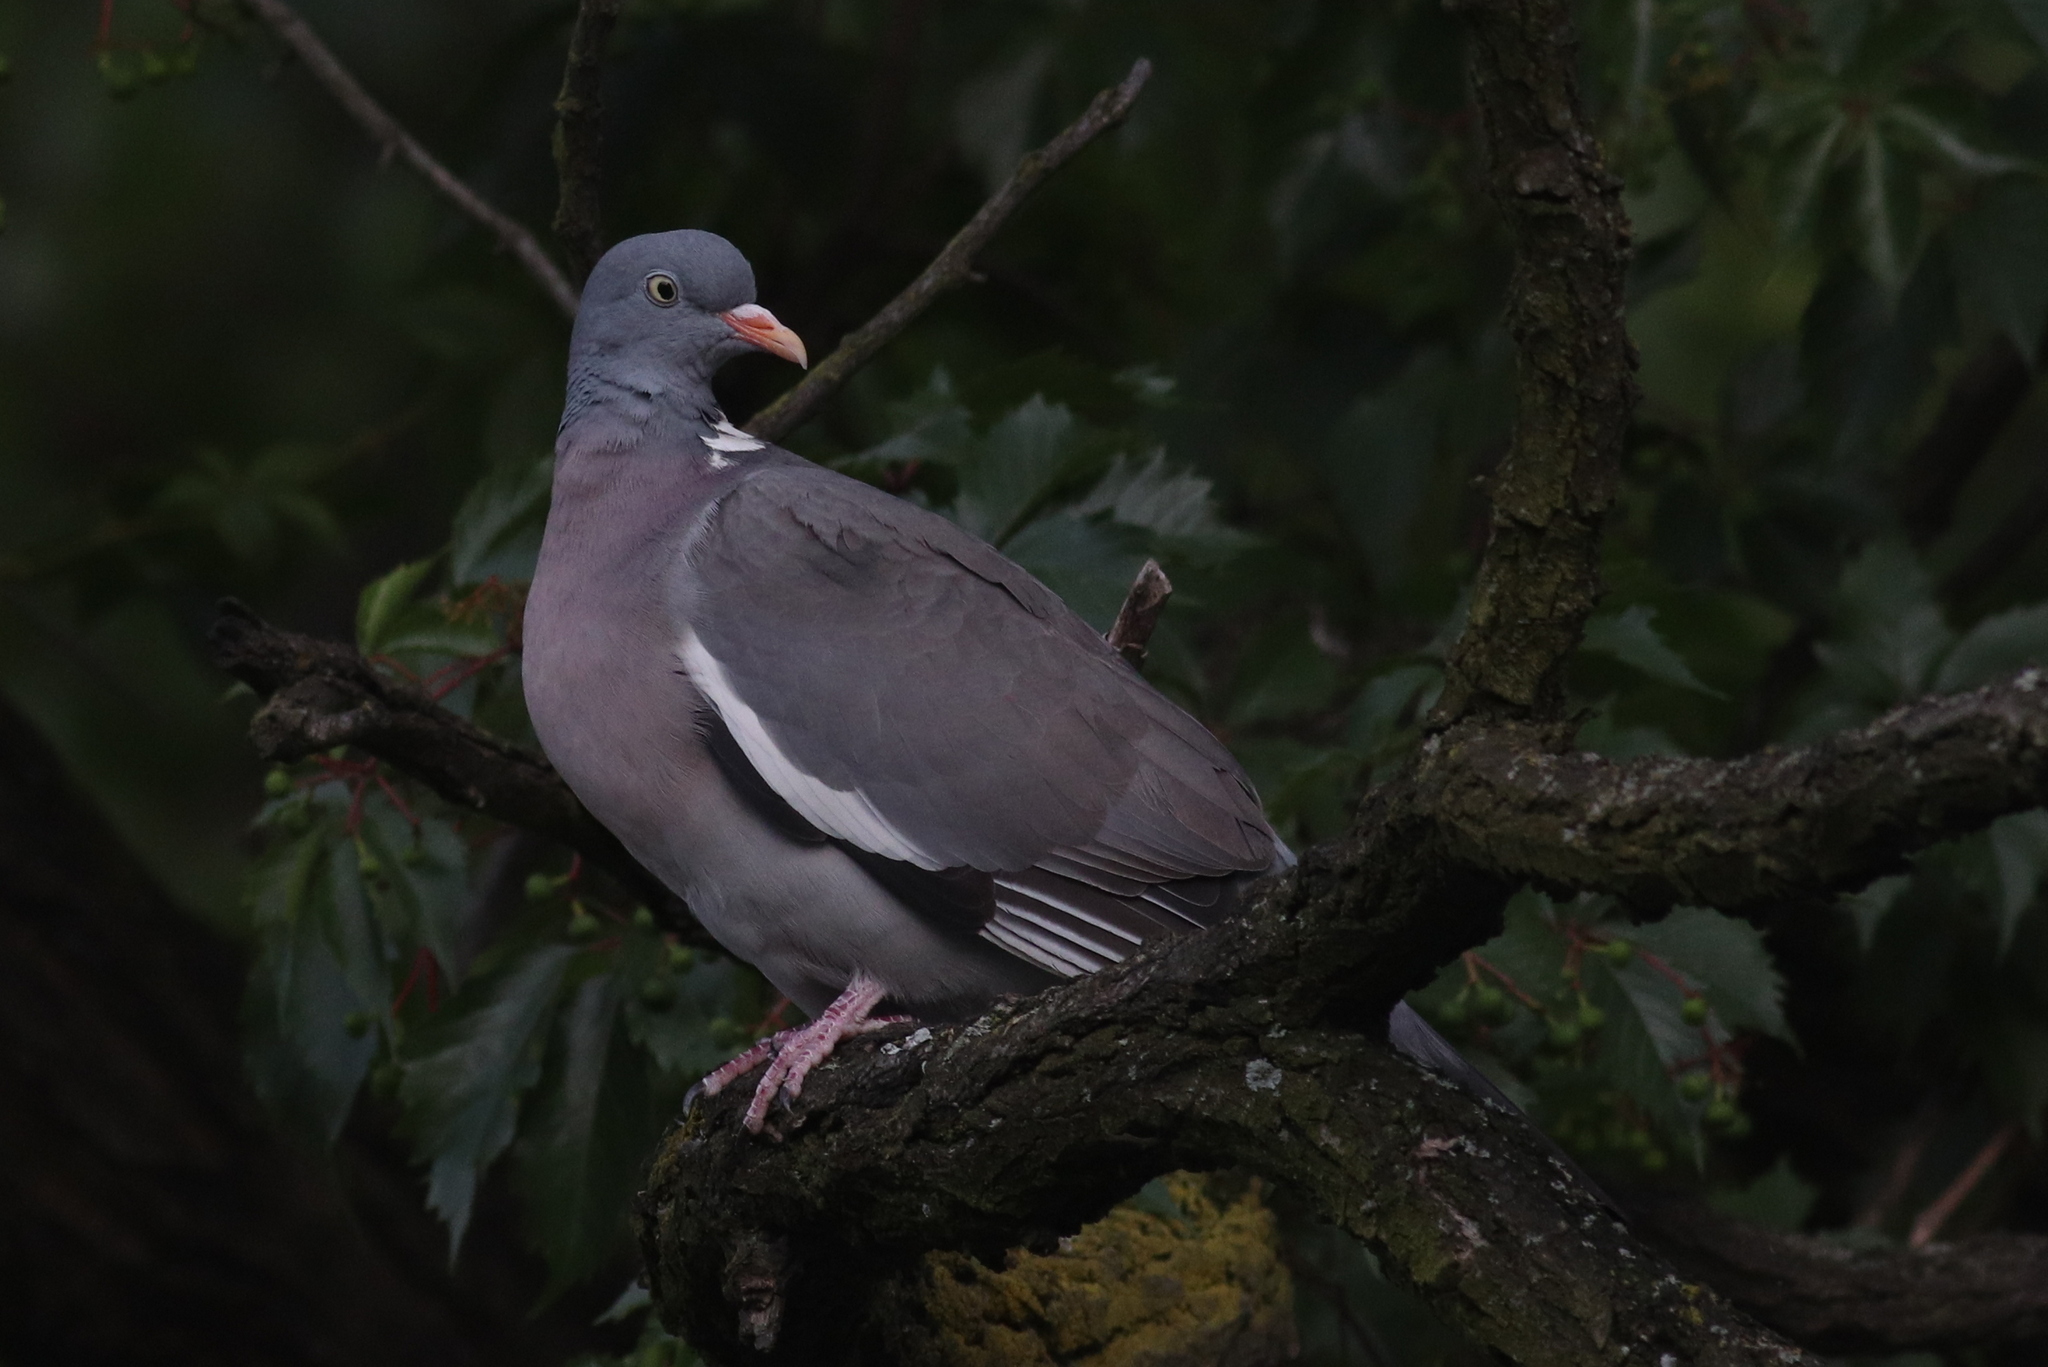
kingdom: Animalia
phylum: Chordata
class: Aves
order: Columbiformes
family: Columbidae
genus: Columba
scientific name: Columba palumbus
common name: Common wood pigeon
